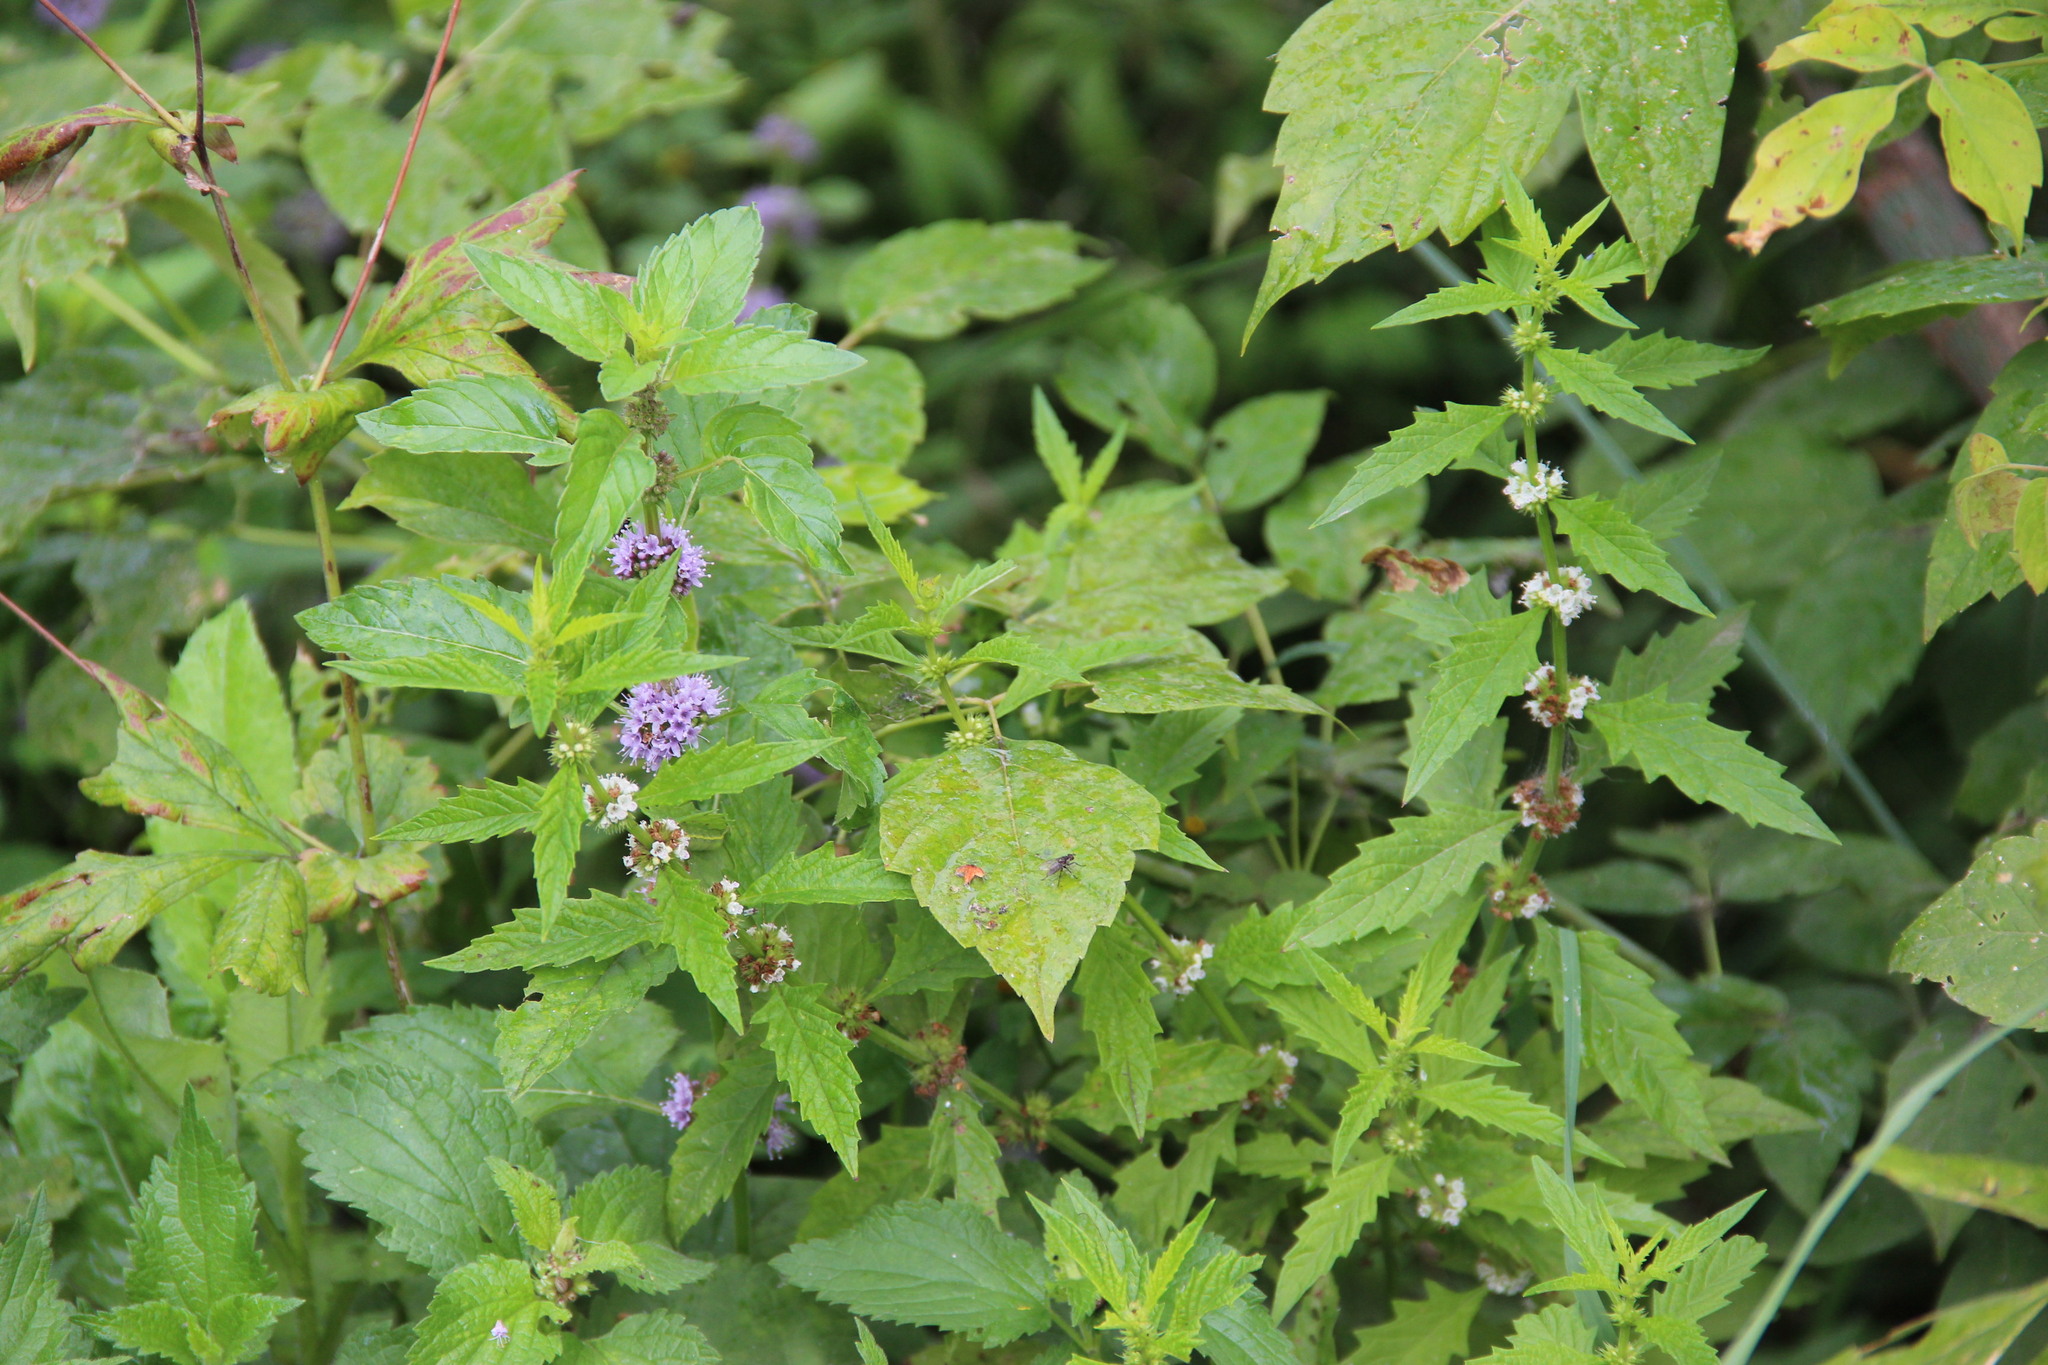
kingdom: Plantae
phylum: Tracheophyta
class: Magnoliopsida
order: Lamiales
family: Lamiaceae
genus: Mentha
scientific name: Mentha arvensis
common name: Corn mint
